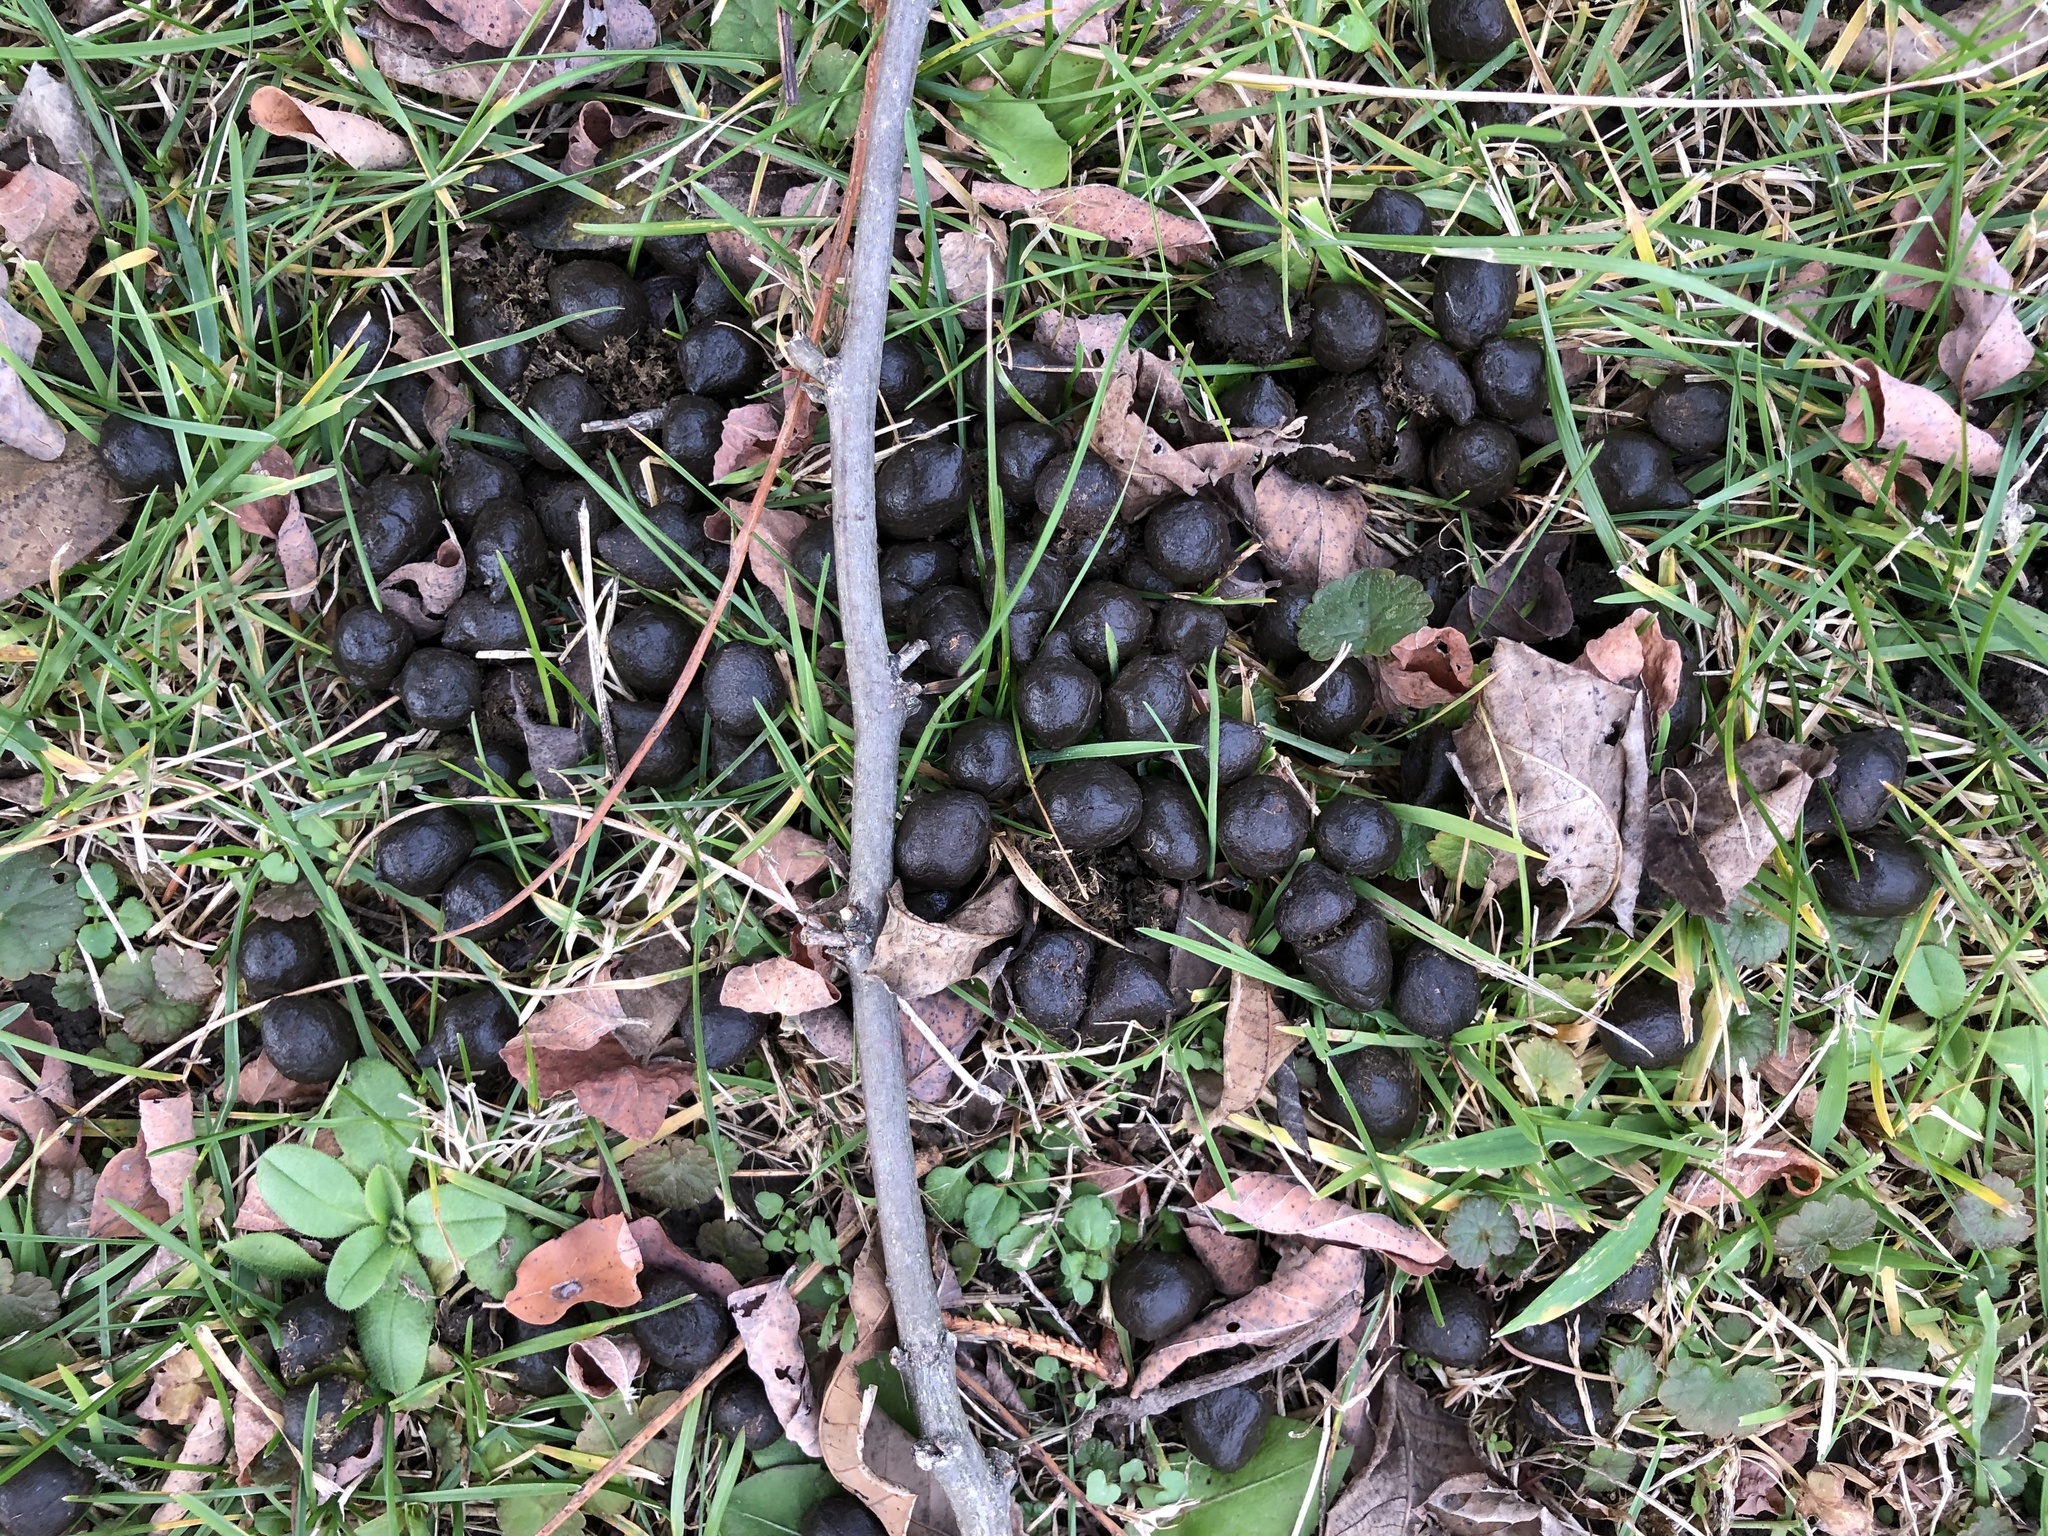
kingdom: Animalia
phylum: Chordata
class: Mammalia
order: Artiodactyla
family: Cervidae
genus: Odocoileus
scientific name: Odocoileus virginianus
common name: White-tailed deer
